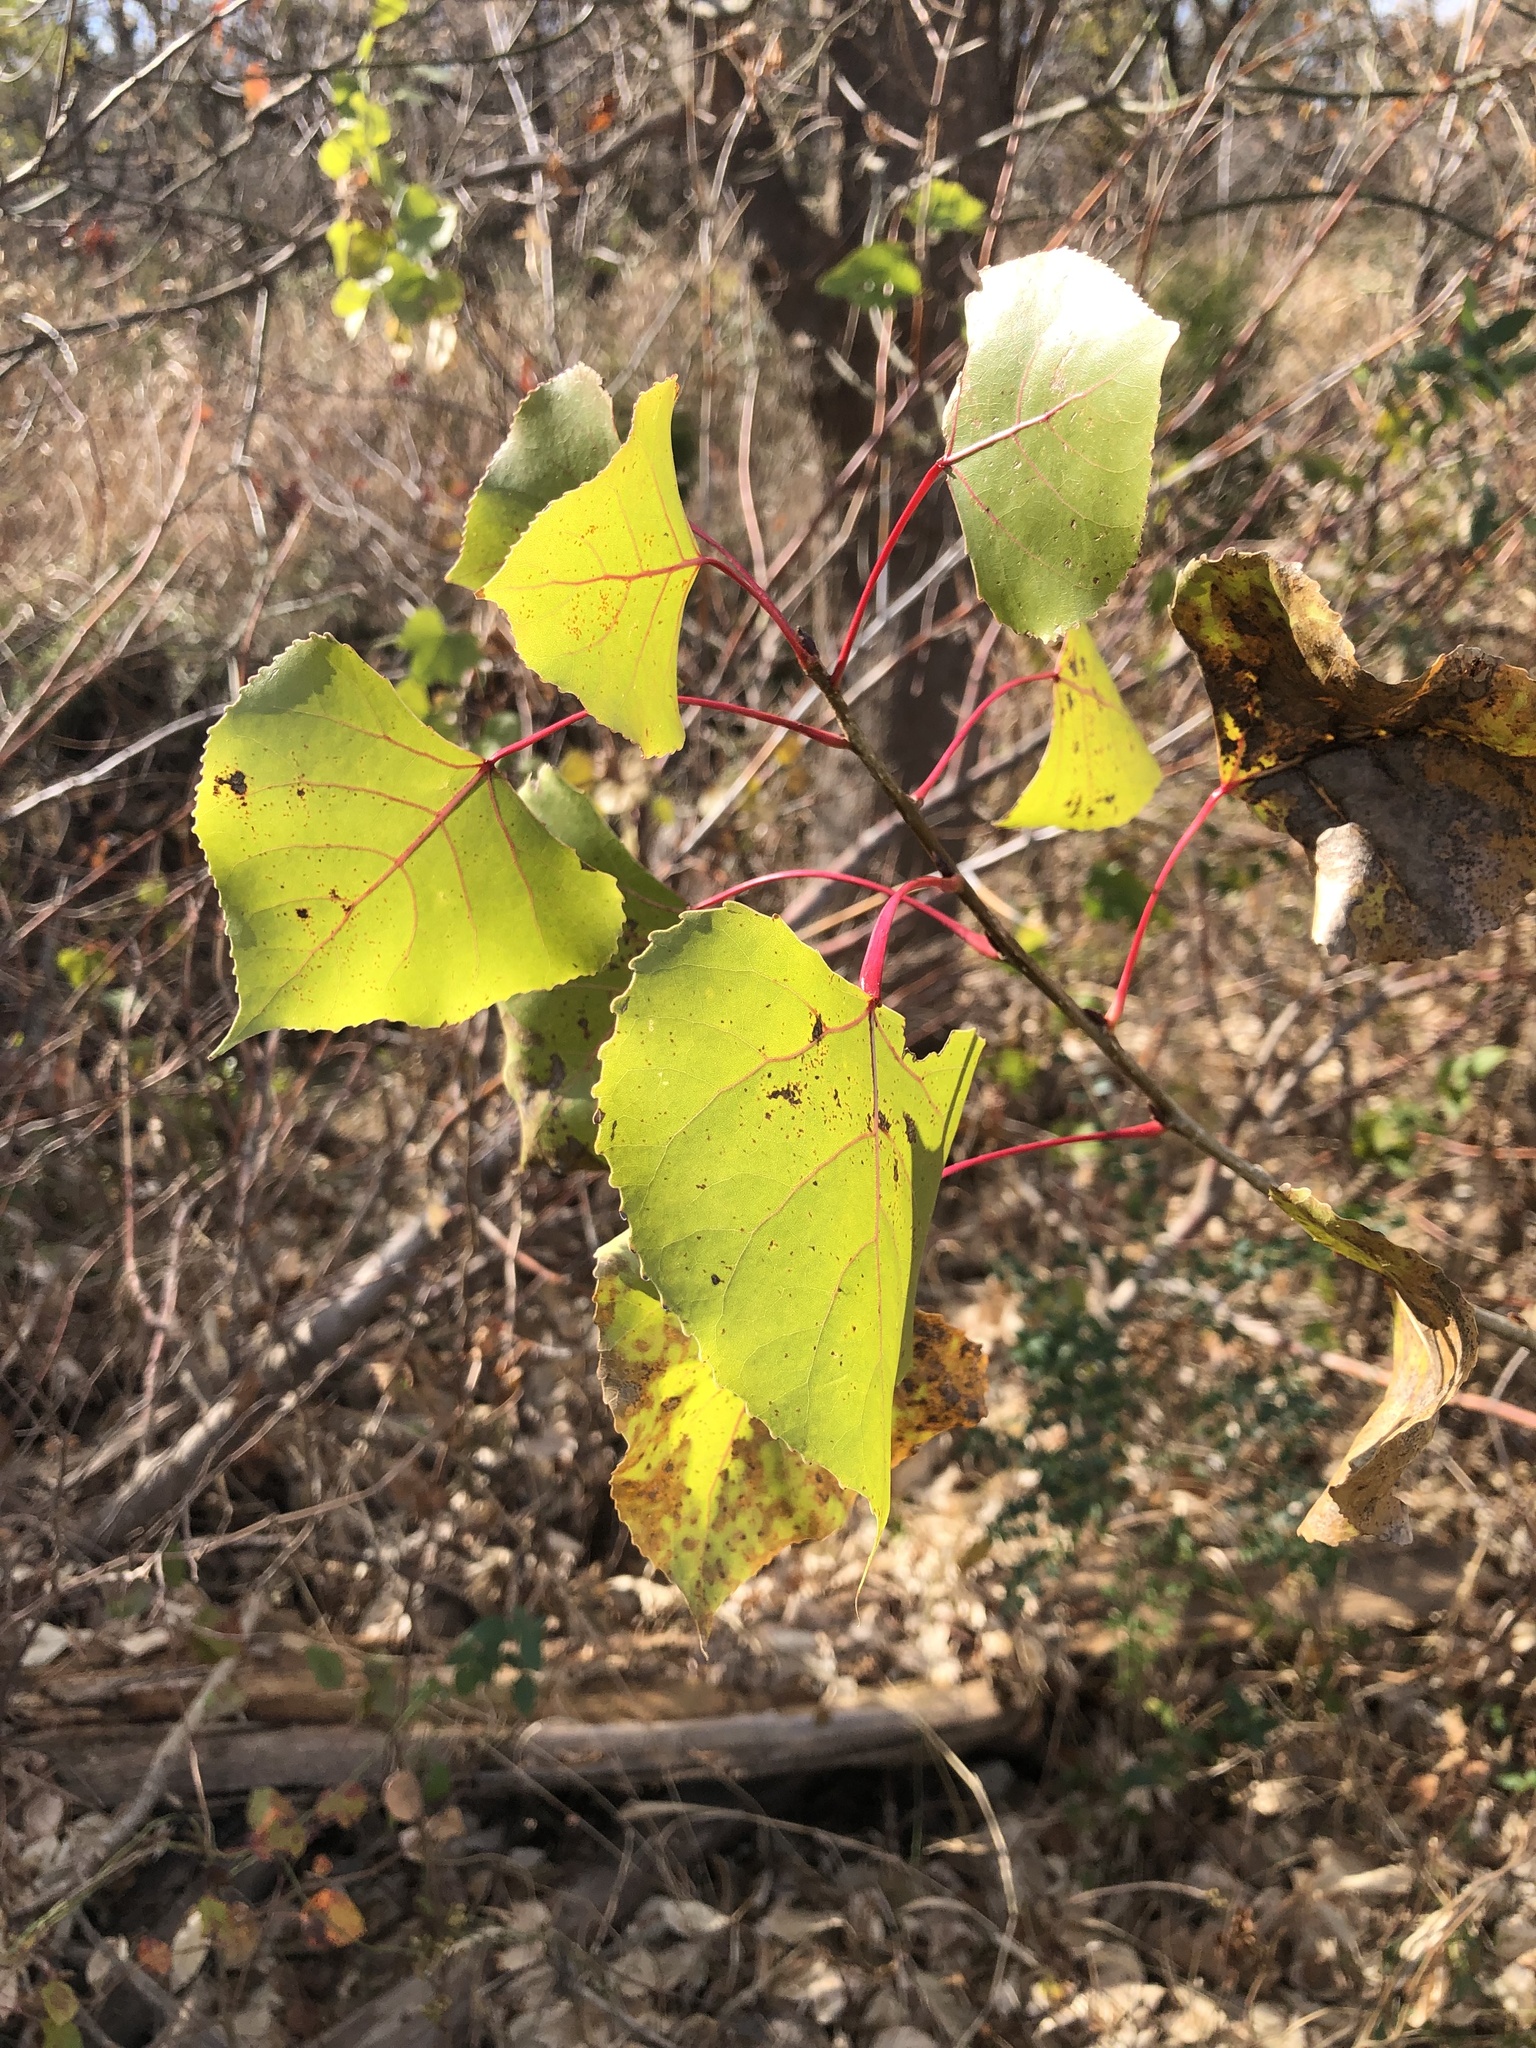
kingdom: Plantae
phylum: Tracheophyta
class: Magnoliopsida
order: Malpighiales
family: Salicaceae
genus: Populus
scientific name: Populus deltoides
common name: Eastern cottonwood
